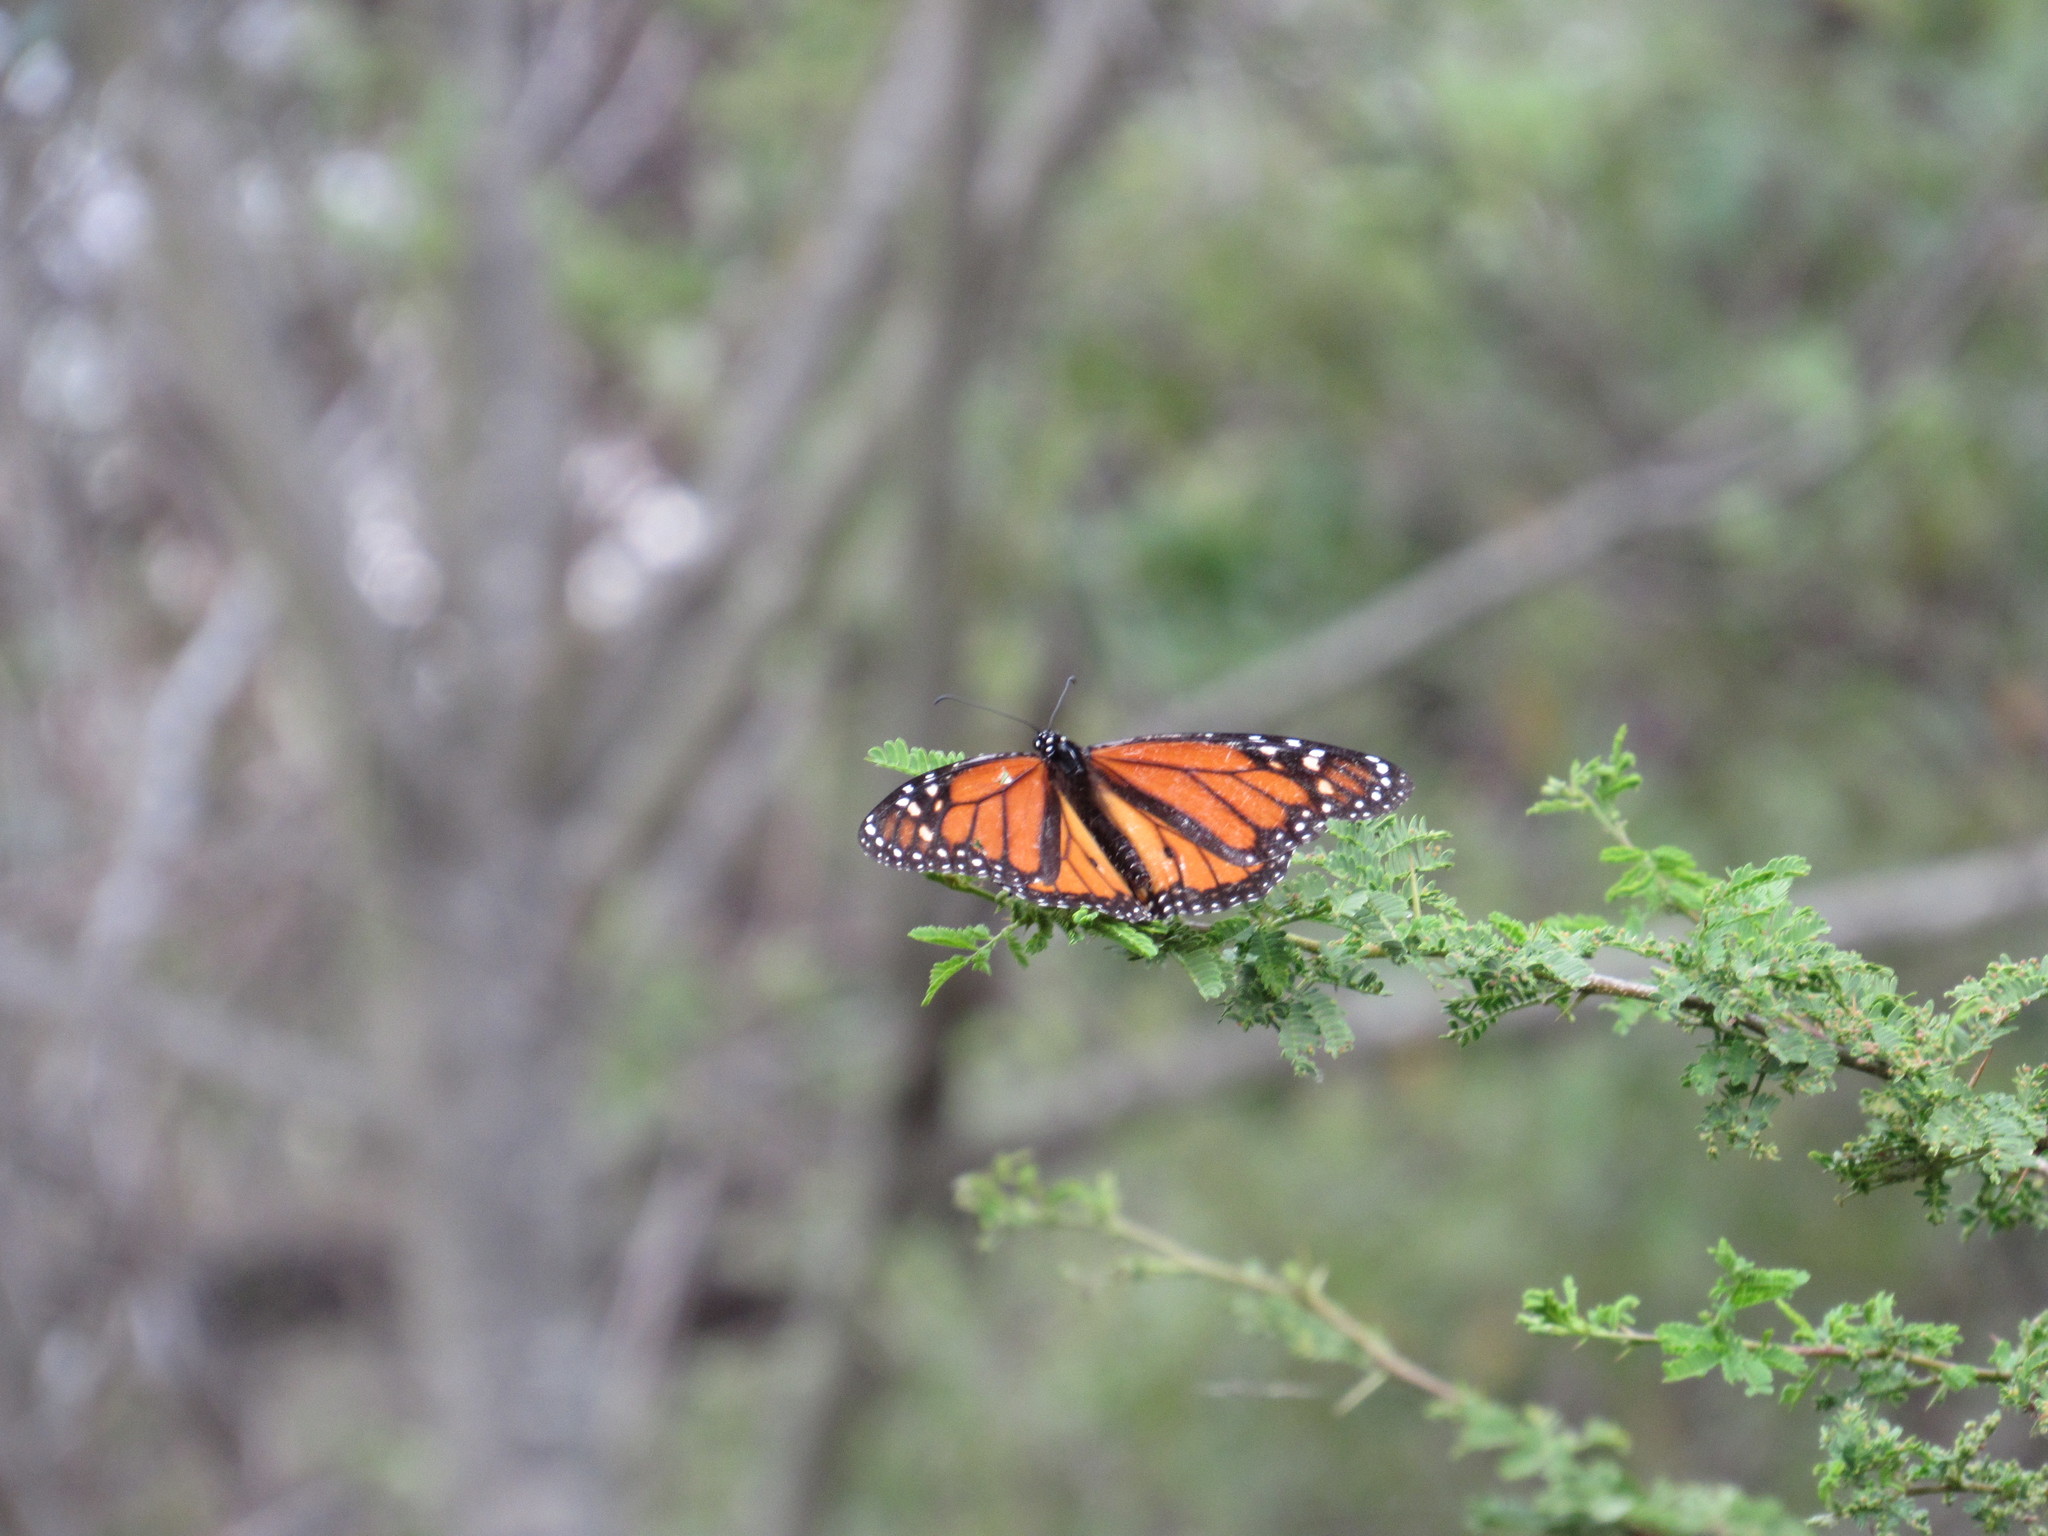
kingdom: Animalia
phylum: Arthropoda
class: Insecta
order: Lepidoptera
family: Nymphalidae
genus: Danaus
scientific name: Danaus plexippus
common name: Monarch
